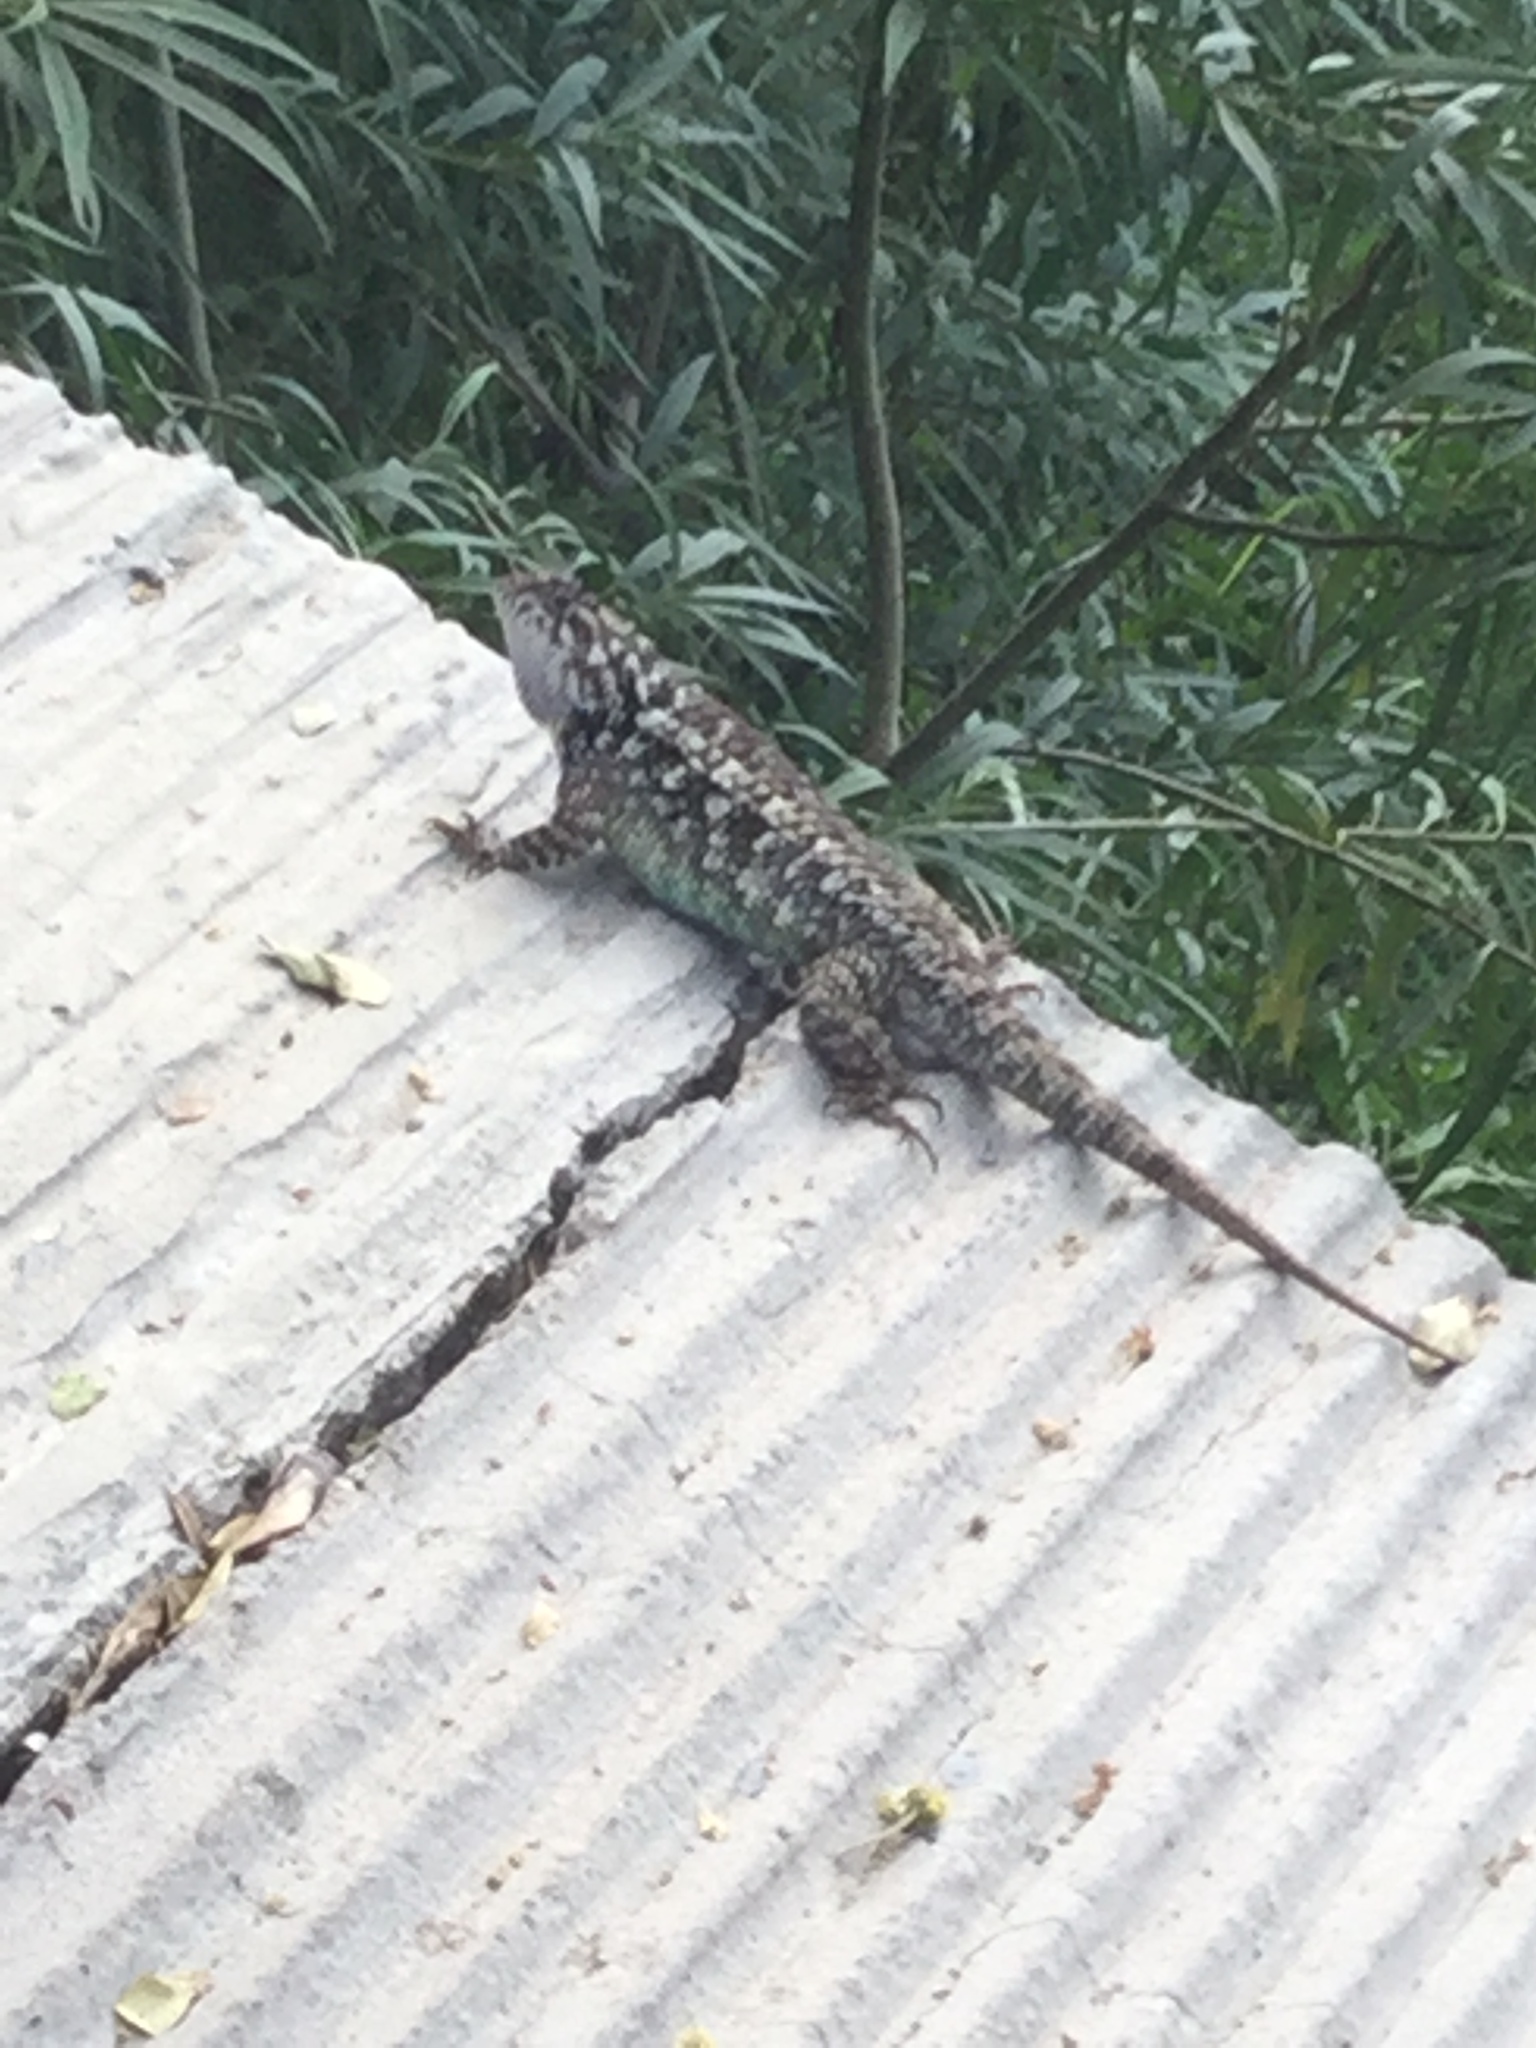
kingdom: Animalia
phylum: Chordata
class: Squamata
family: Phrynosomatidae
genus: Sceloporus
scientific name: Sceloporus spinosus
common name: Blue-spotted spiny lizard [caeruleopunctatus]
